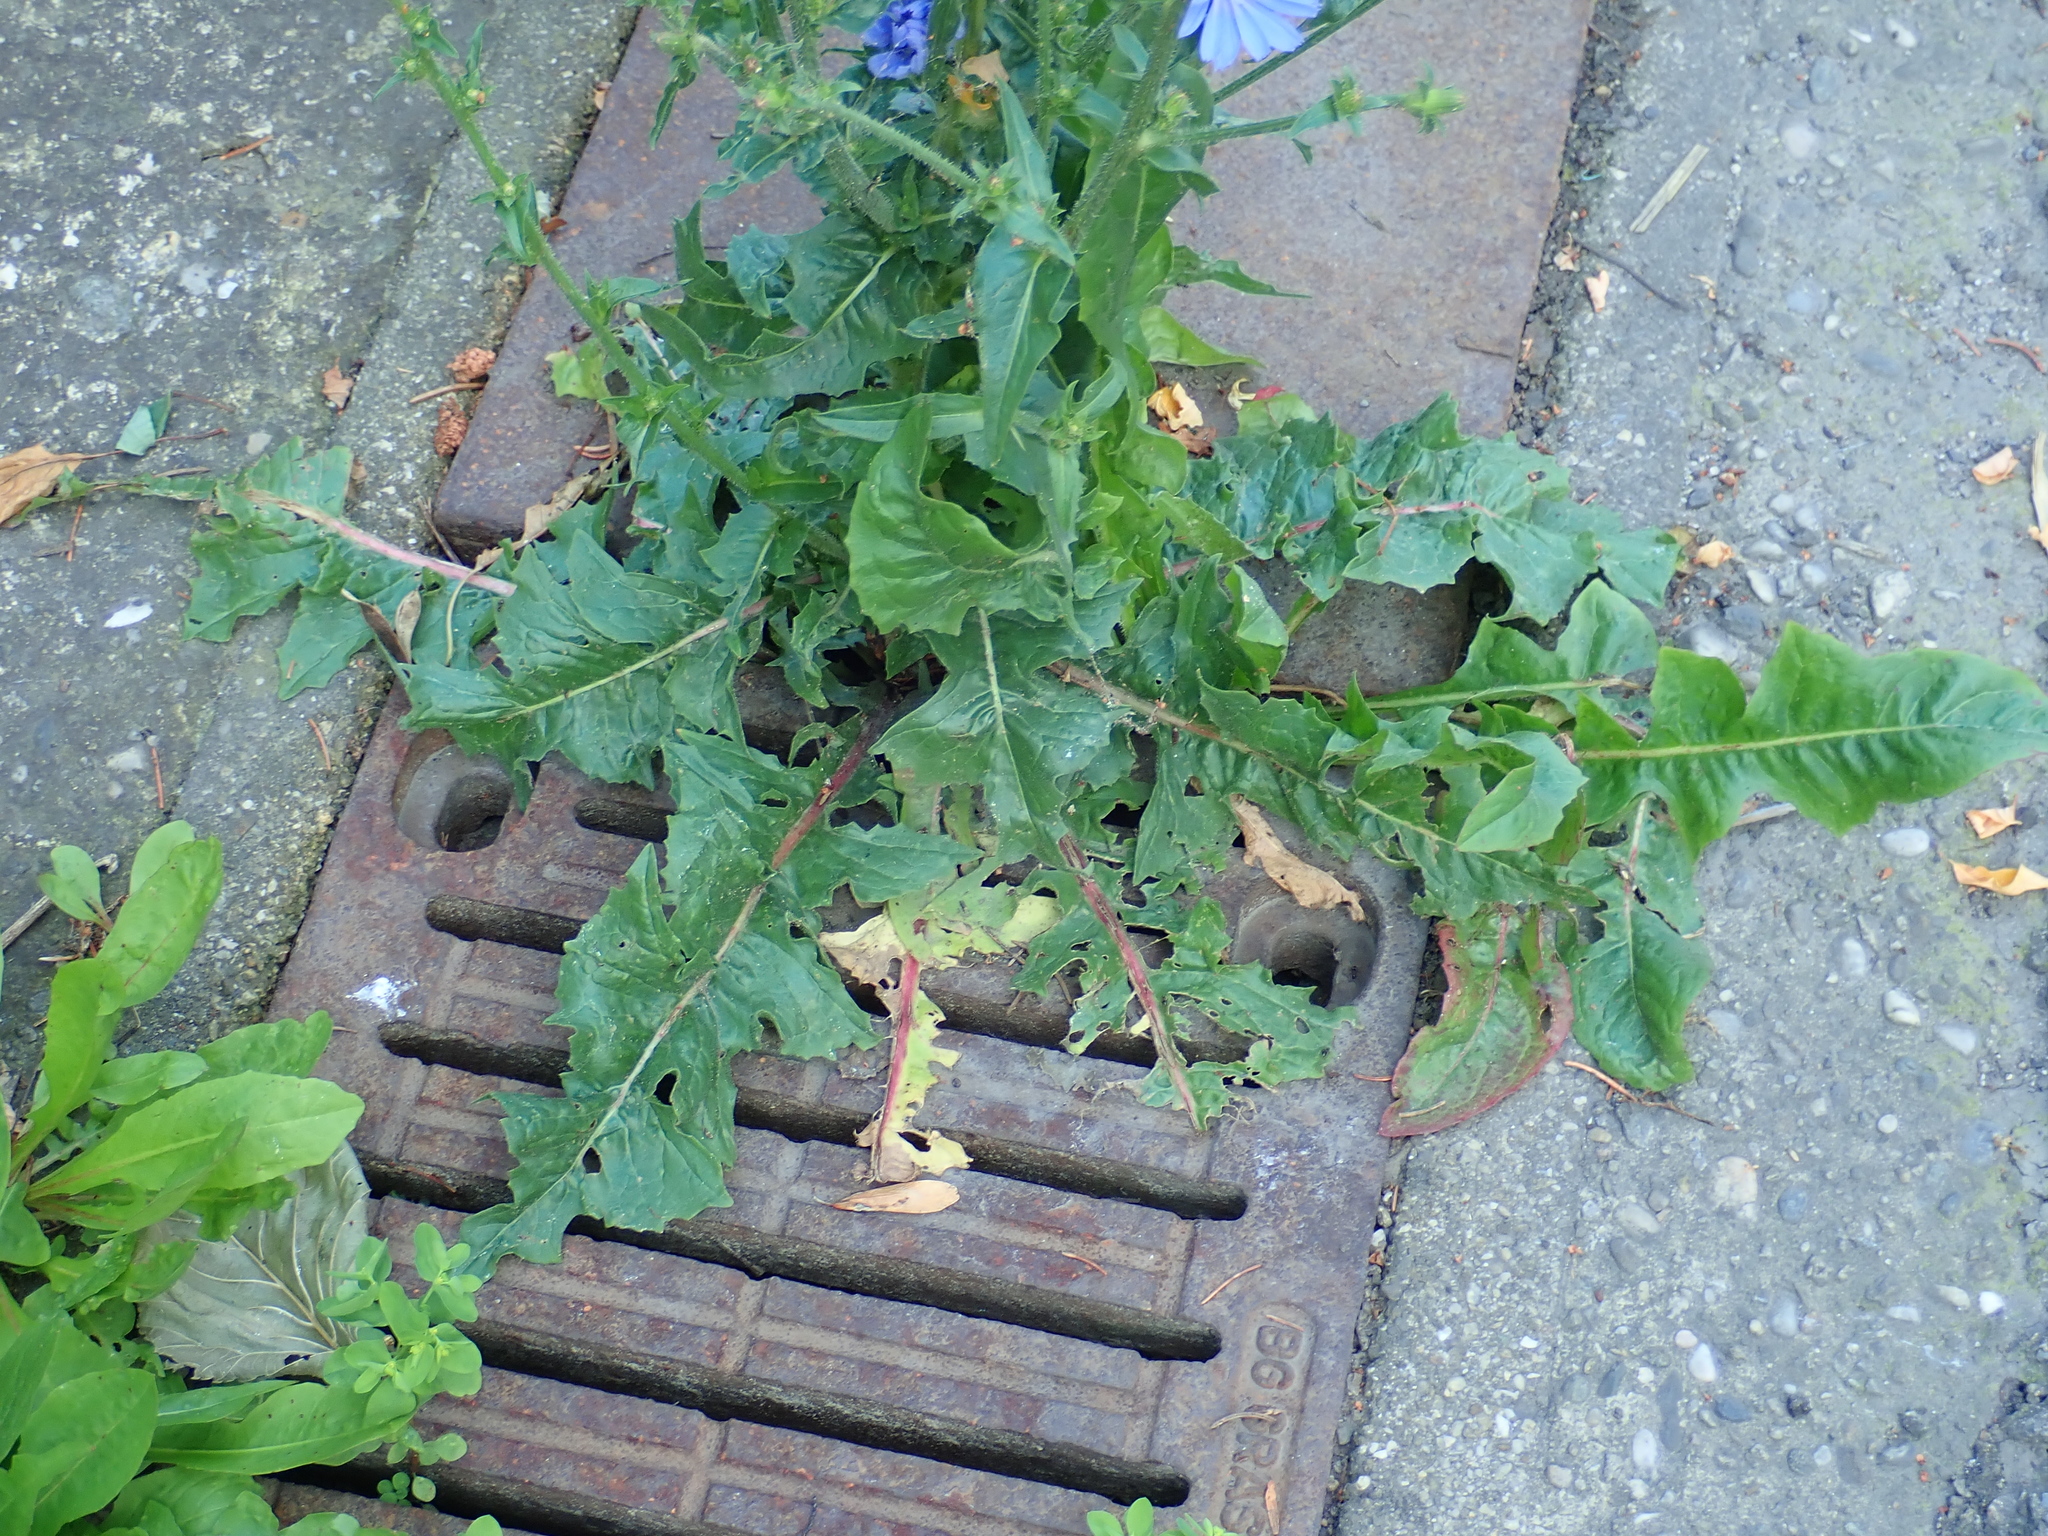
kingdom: Plantae
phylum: Tracheophyta
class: Magnoliopsida
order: Asterales
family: Asteraceae
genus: Cichorium
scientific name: Cichorium intybus
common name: Chicory
